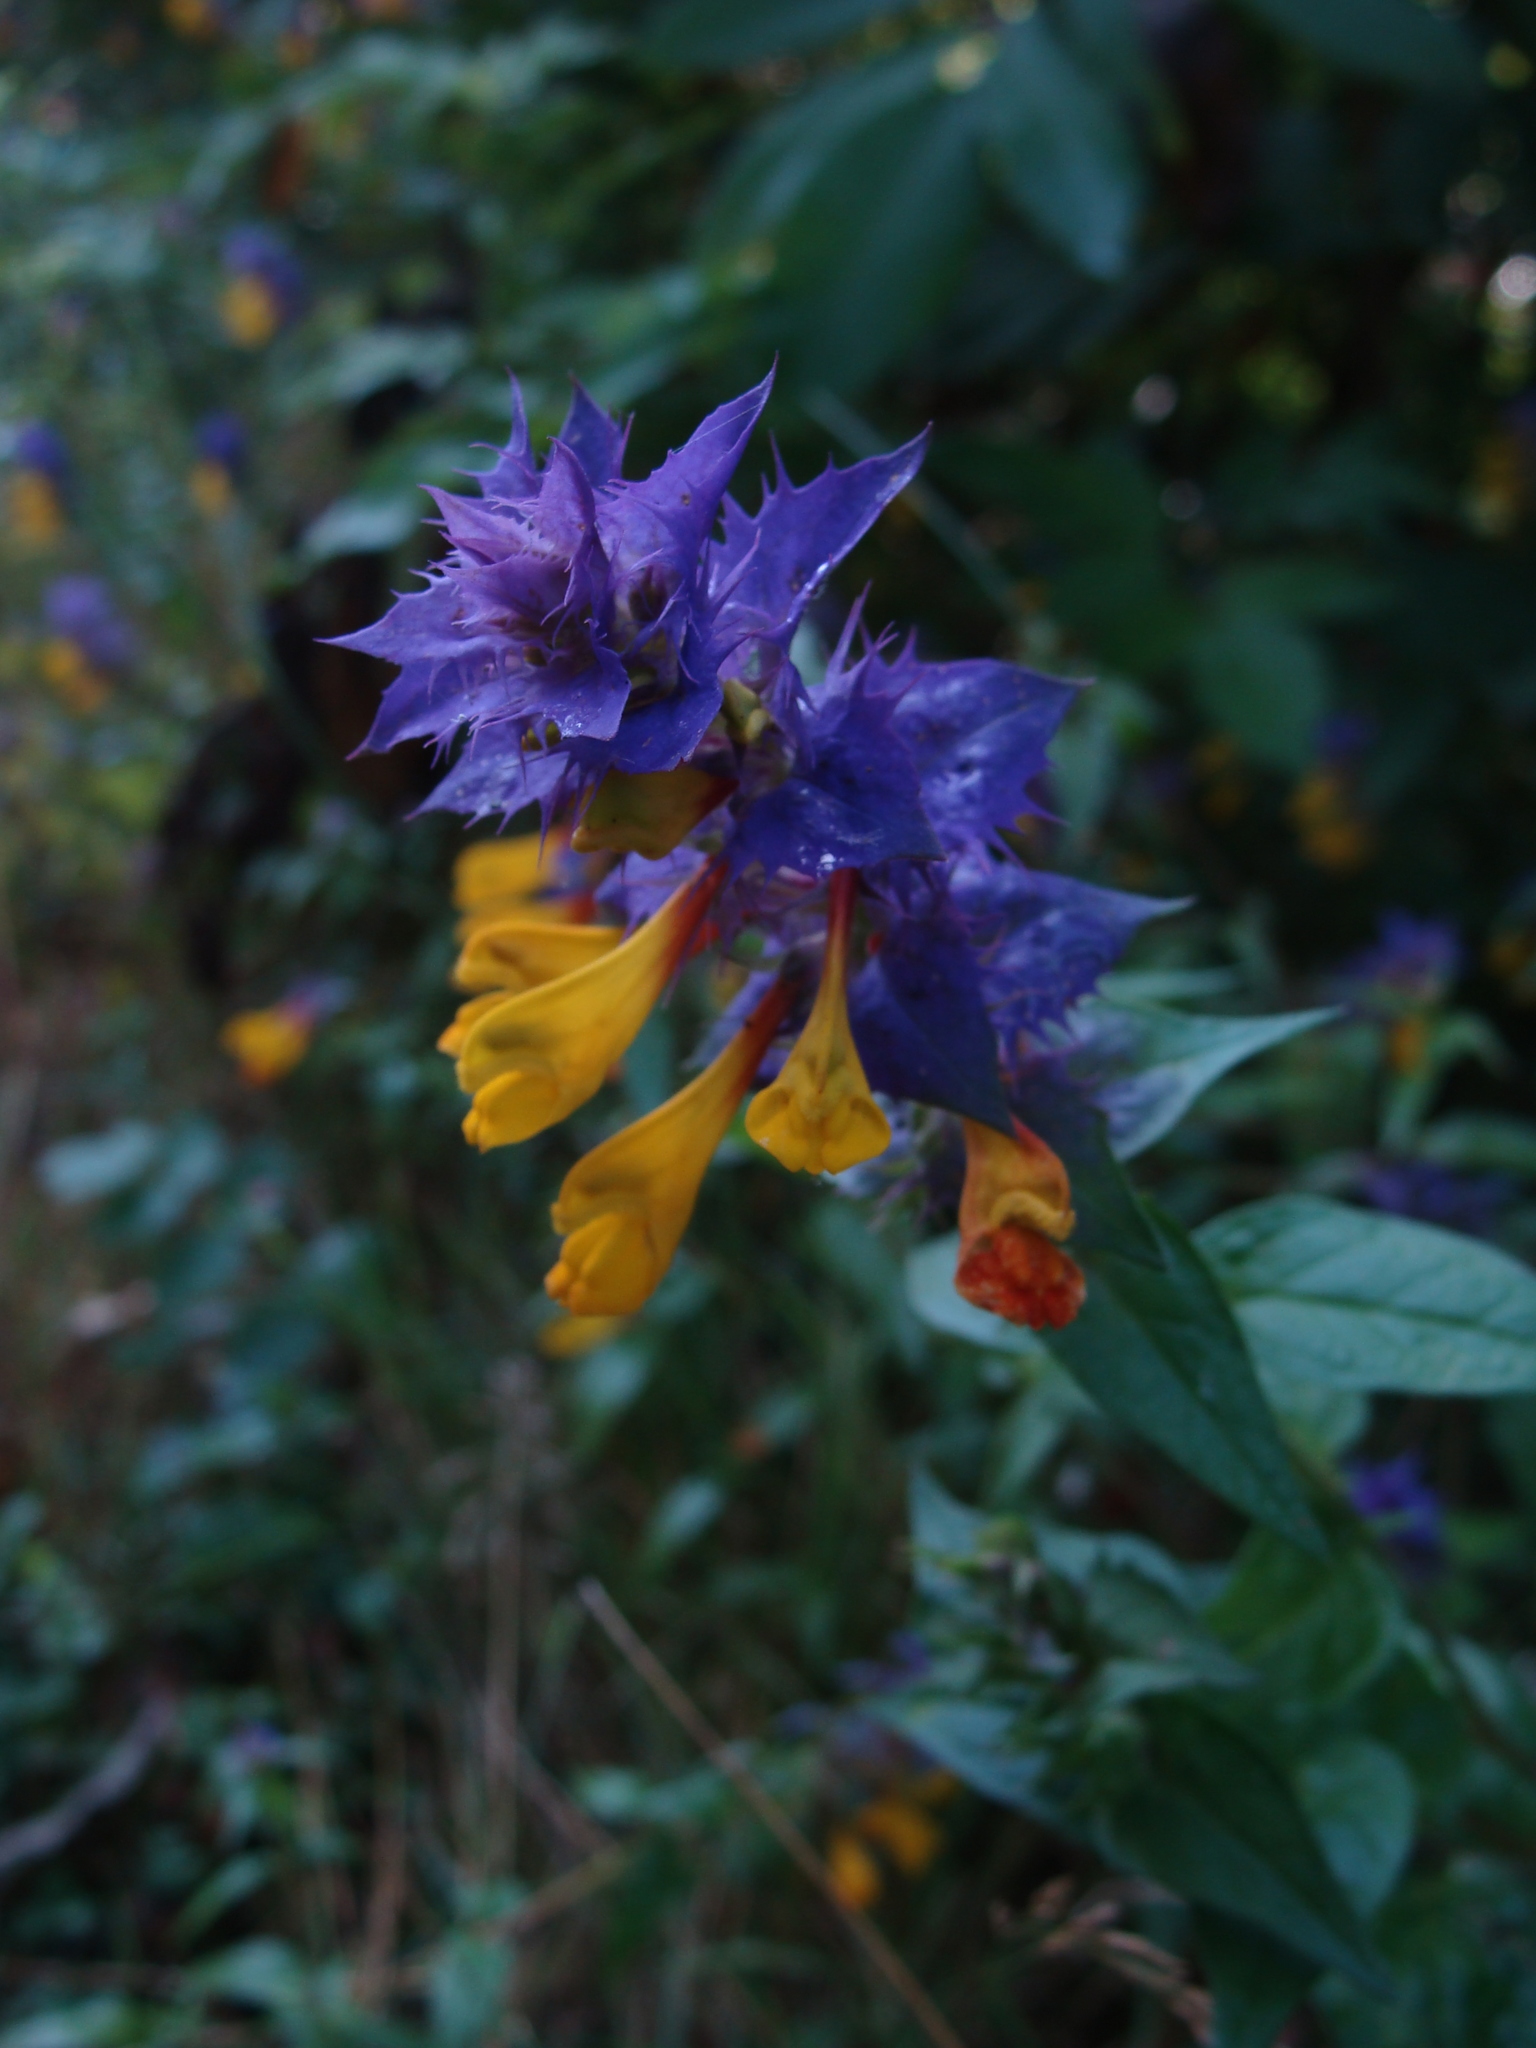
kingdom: Plantae
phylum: Tracheophyta
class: Magnoliopsida
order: Lamiales
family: Orobanchaceae
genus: Melampyrum
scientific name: Melampyrum nemorosum
